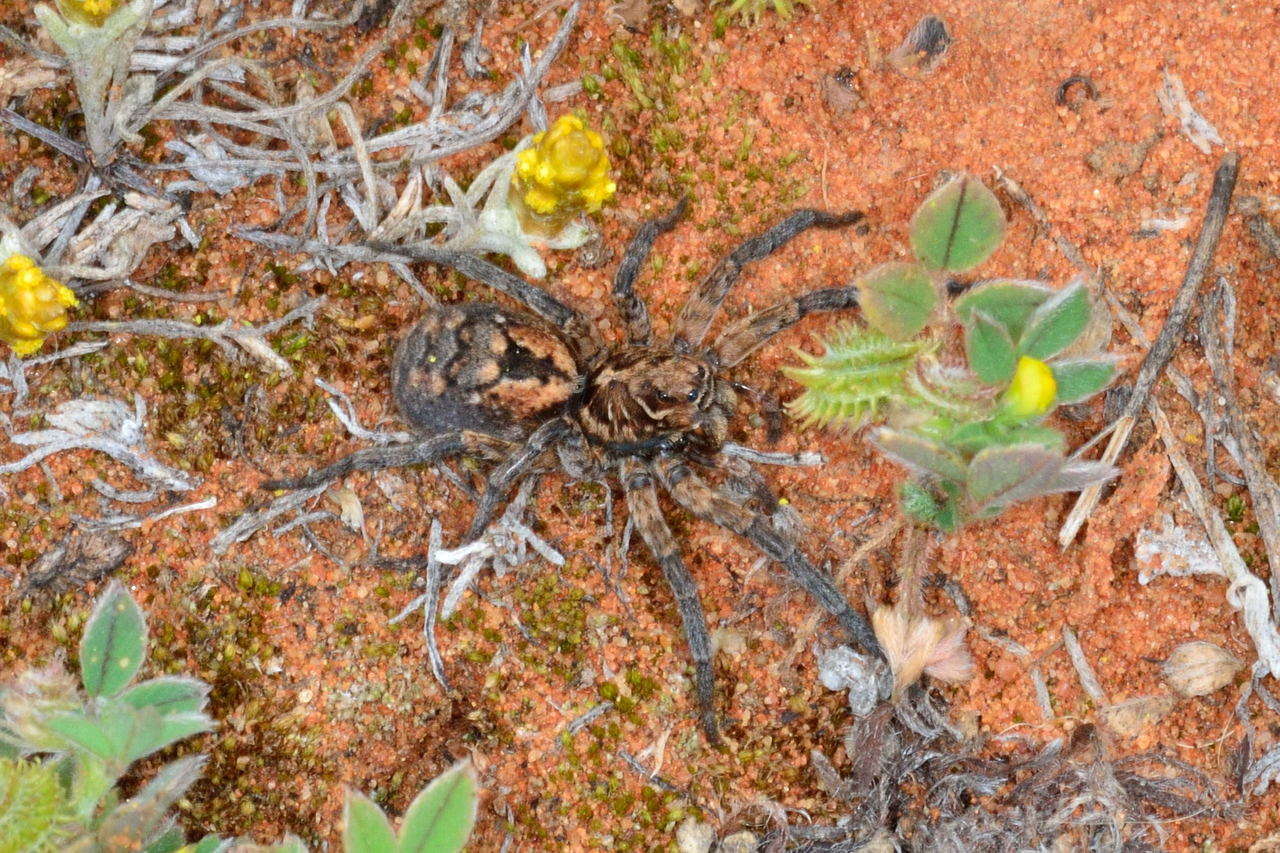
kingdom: Animalia
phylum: Arthropoda
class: Arachnida
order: Araneae
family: Lycosidae
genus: Tasmanicosa
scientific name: Tasmanicosa harmsi
